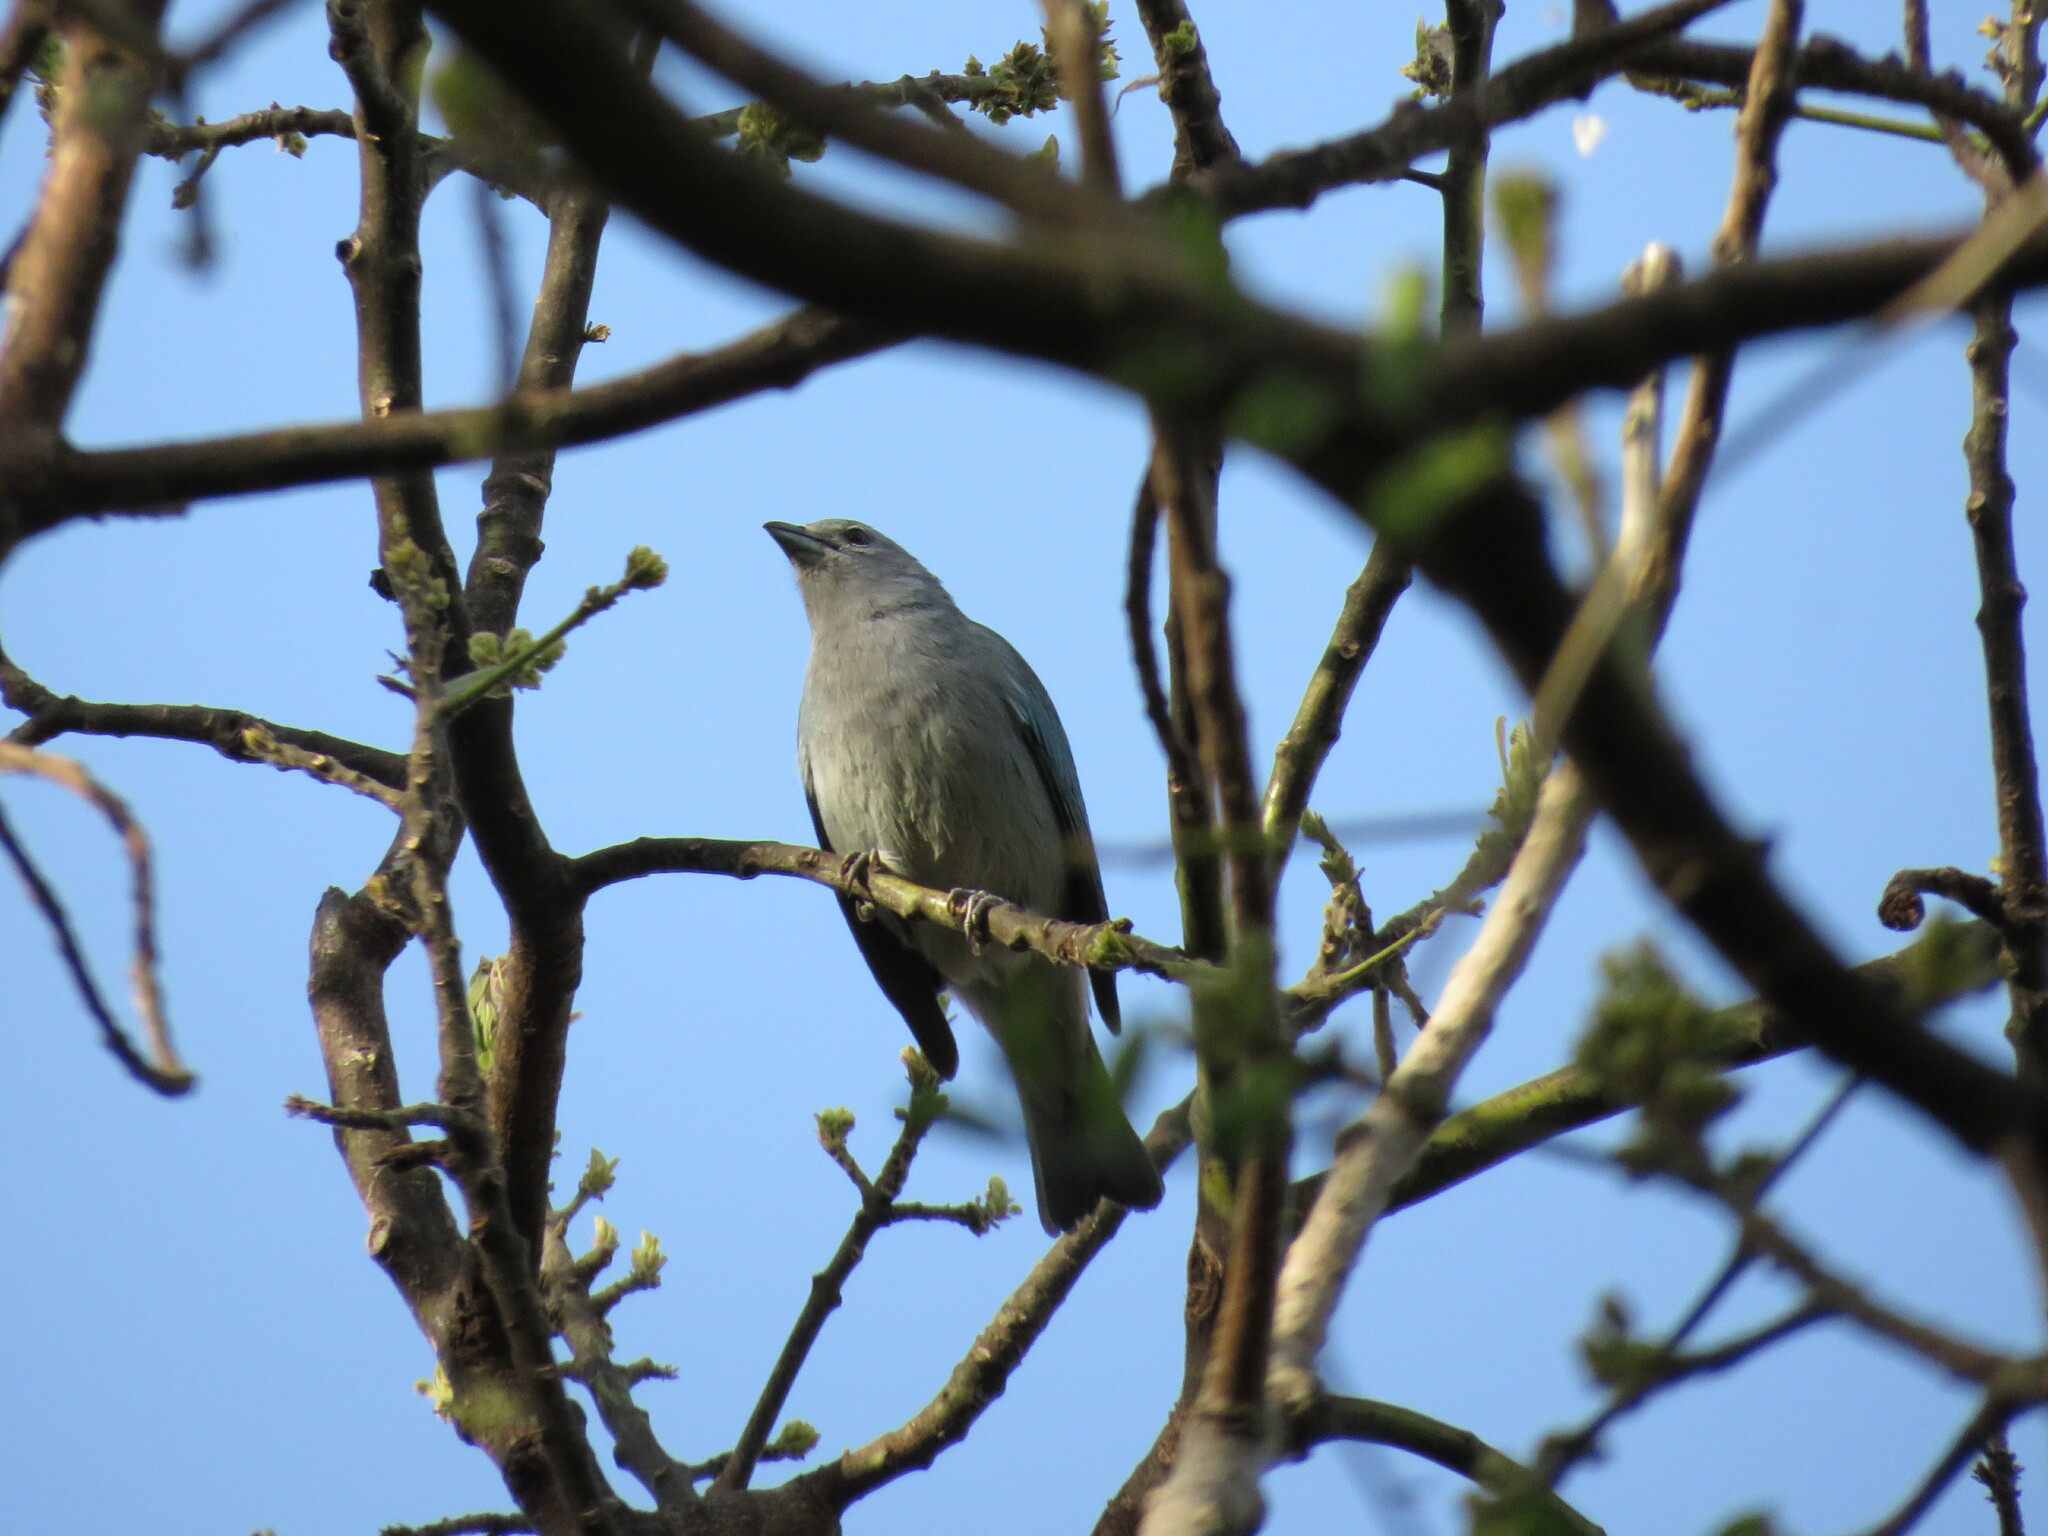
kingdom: Animalia
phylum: Chordata
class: Aves
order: Passeriformes
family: Thraupidae
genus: Thraupis
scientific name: Thraupis sayaca
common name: Sayaca tanager
